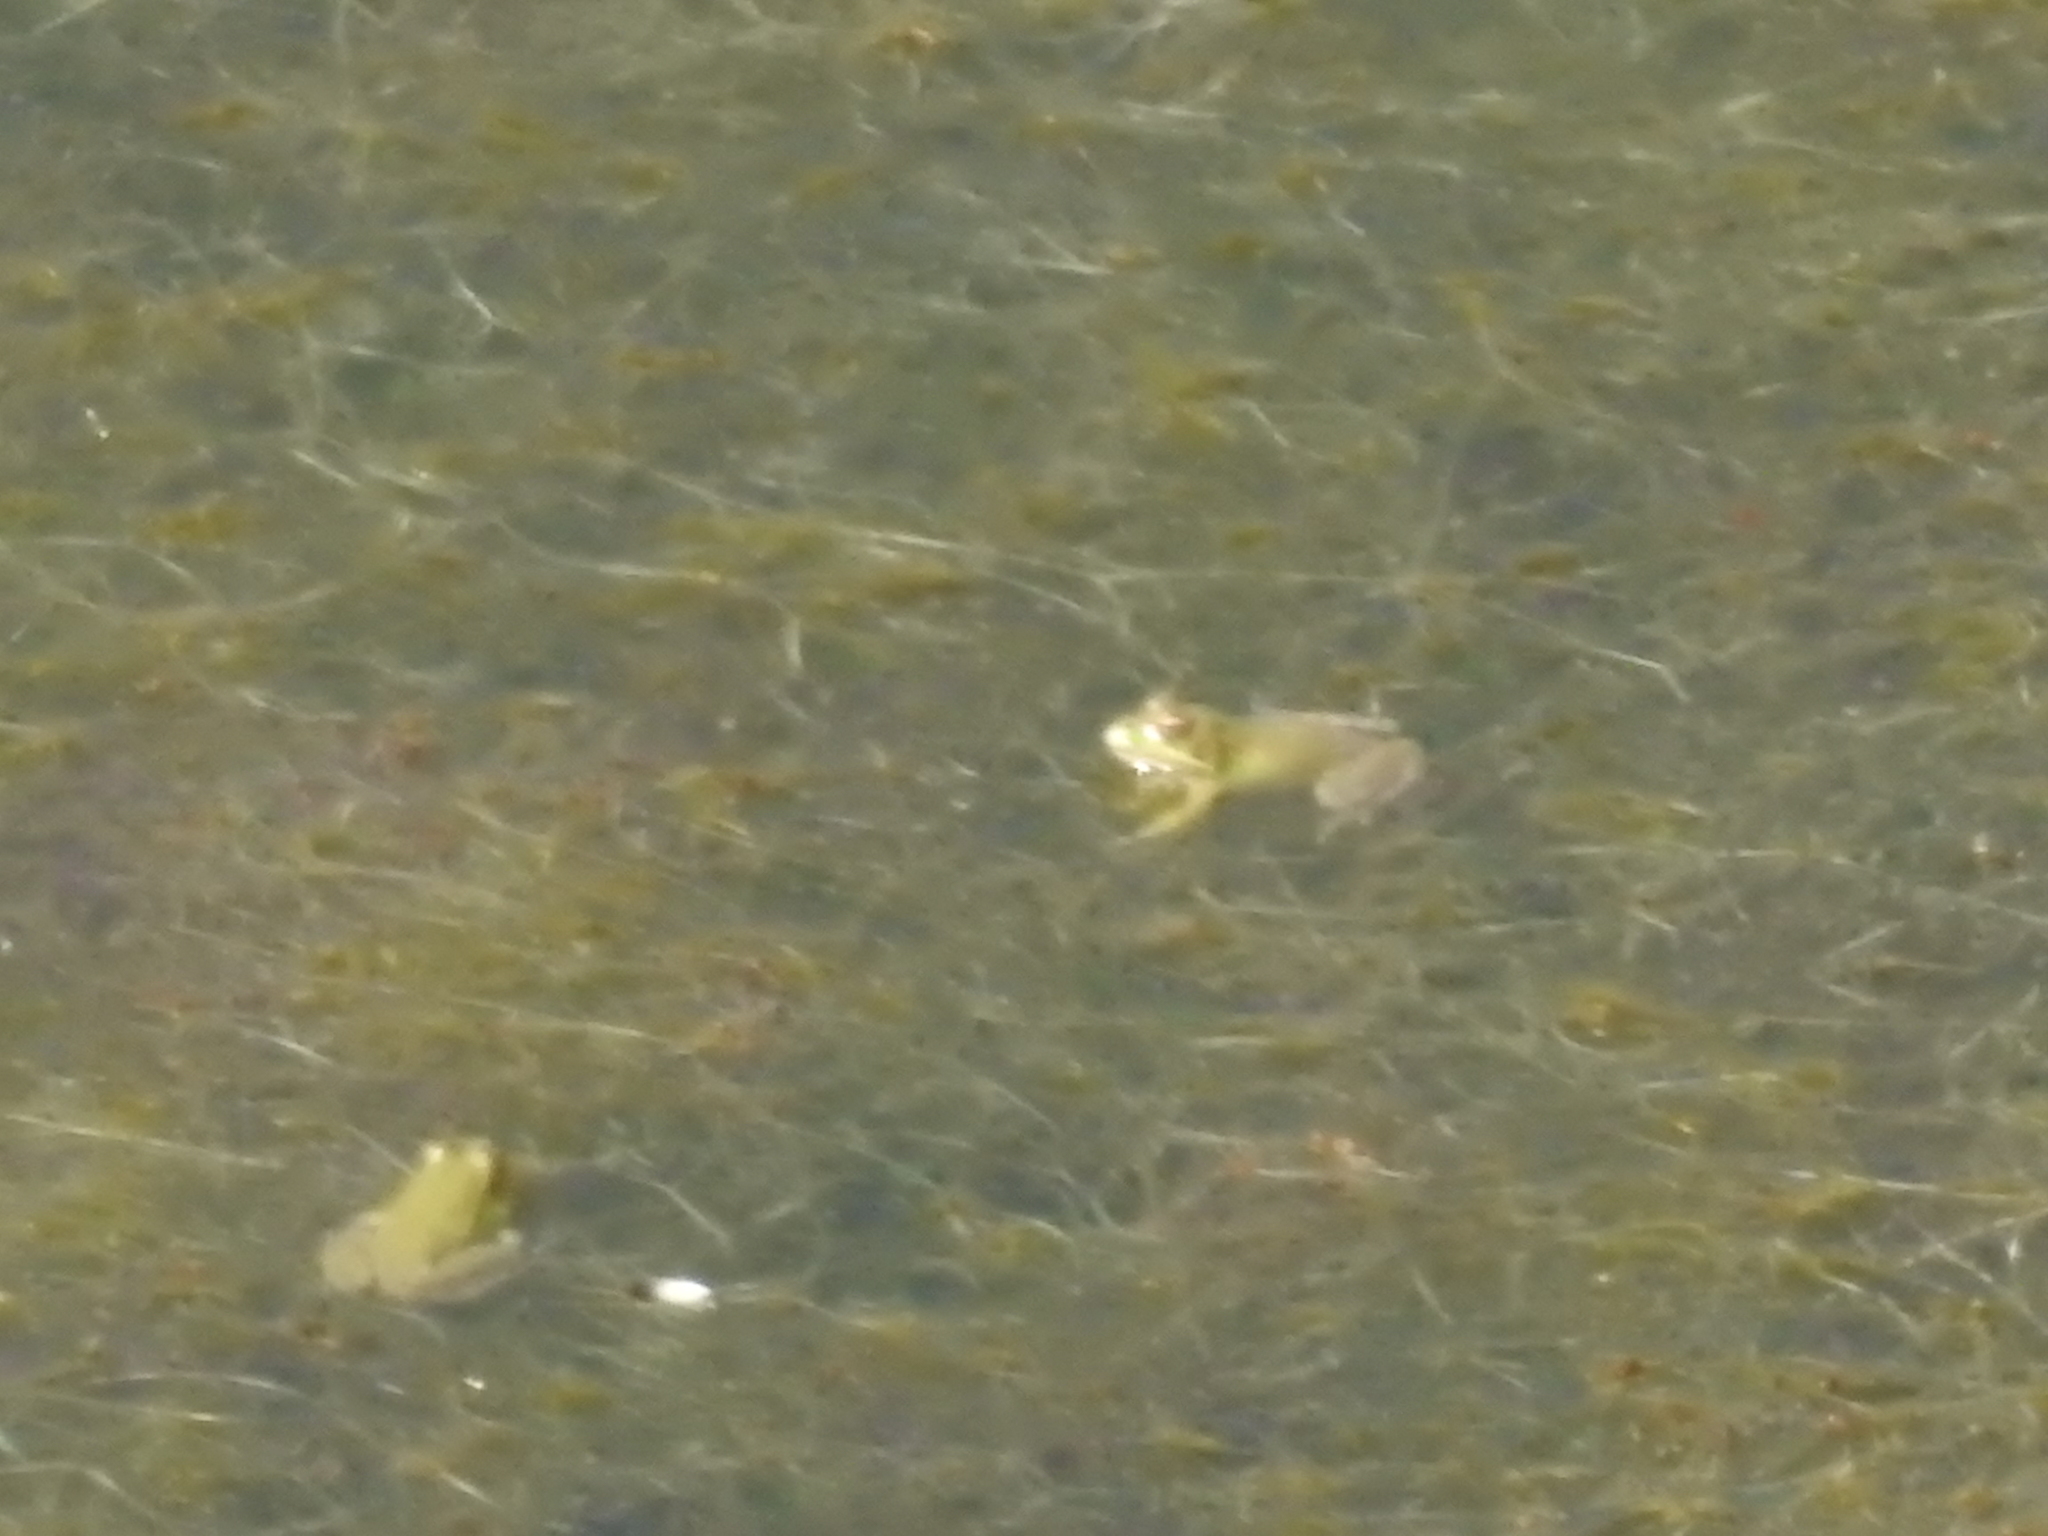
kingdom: Animalia
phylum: Chordata
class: Amphibia
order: Anura
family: Ranidae
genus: Pelophylax
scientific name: Pelophylax perezi
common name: Perez's frog
